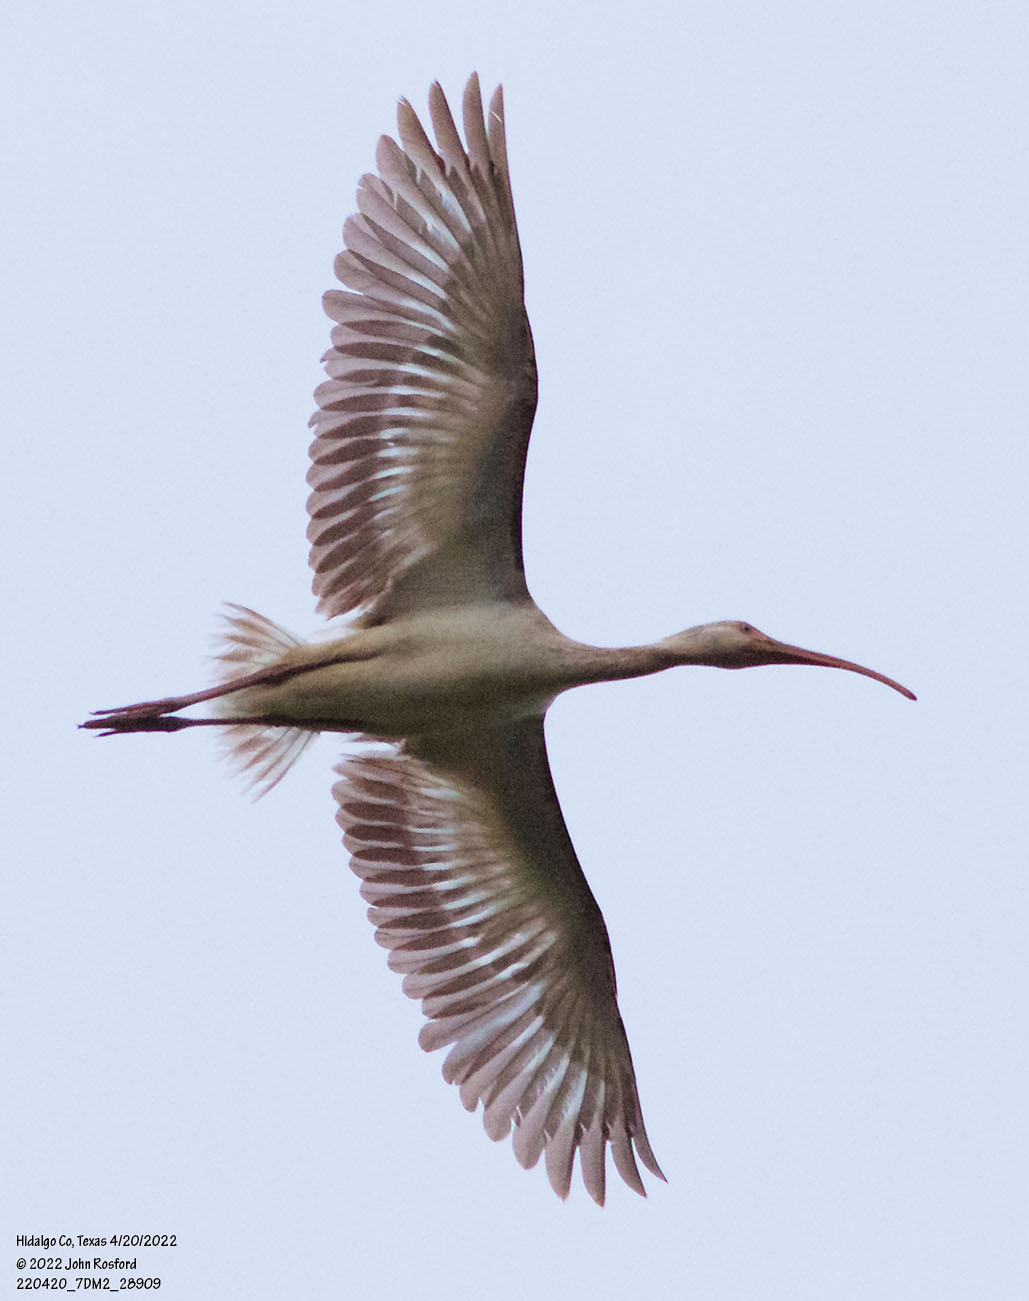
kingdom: Animalia
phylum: Chordata
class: Aves
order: Pelecaniformes
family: Threskiornithidae
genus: Eudocimus
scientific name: Eudocimus albus
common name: White ibis
